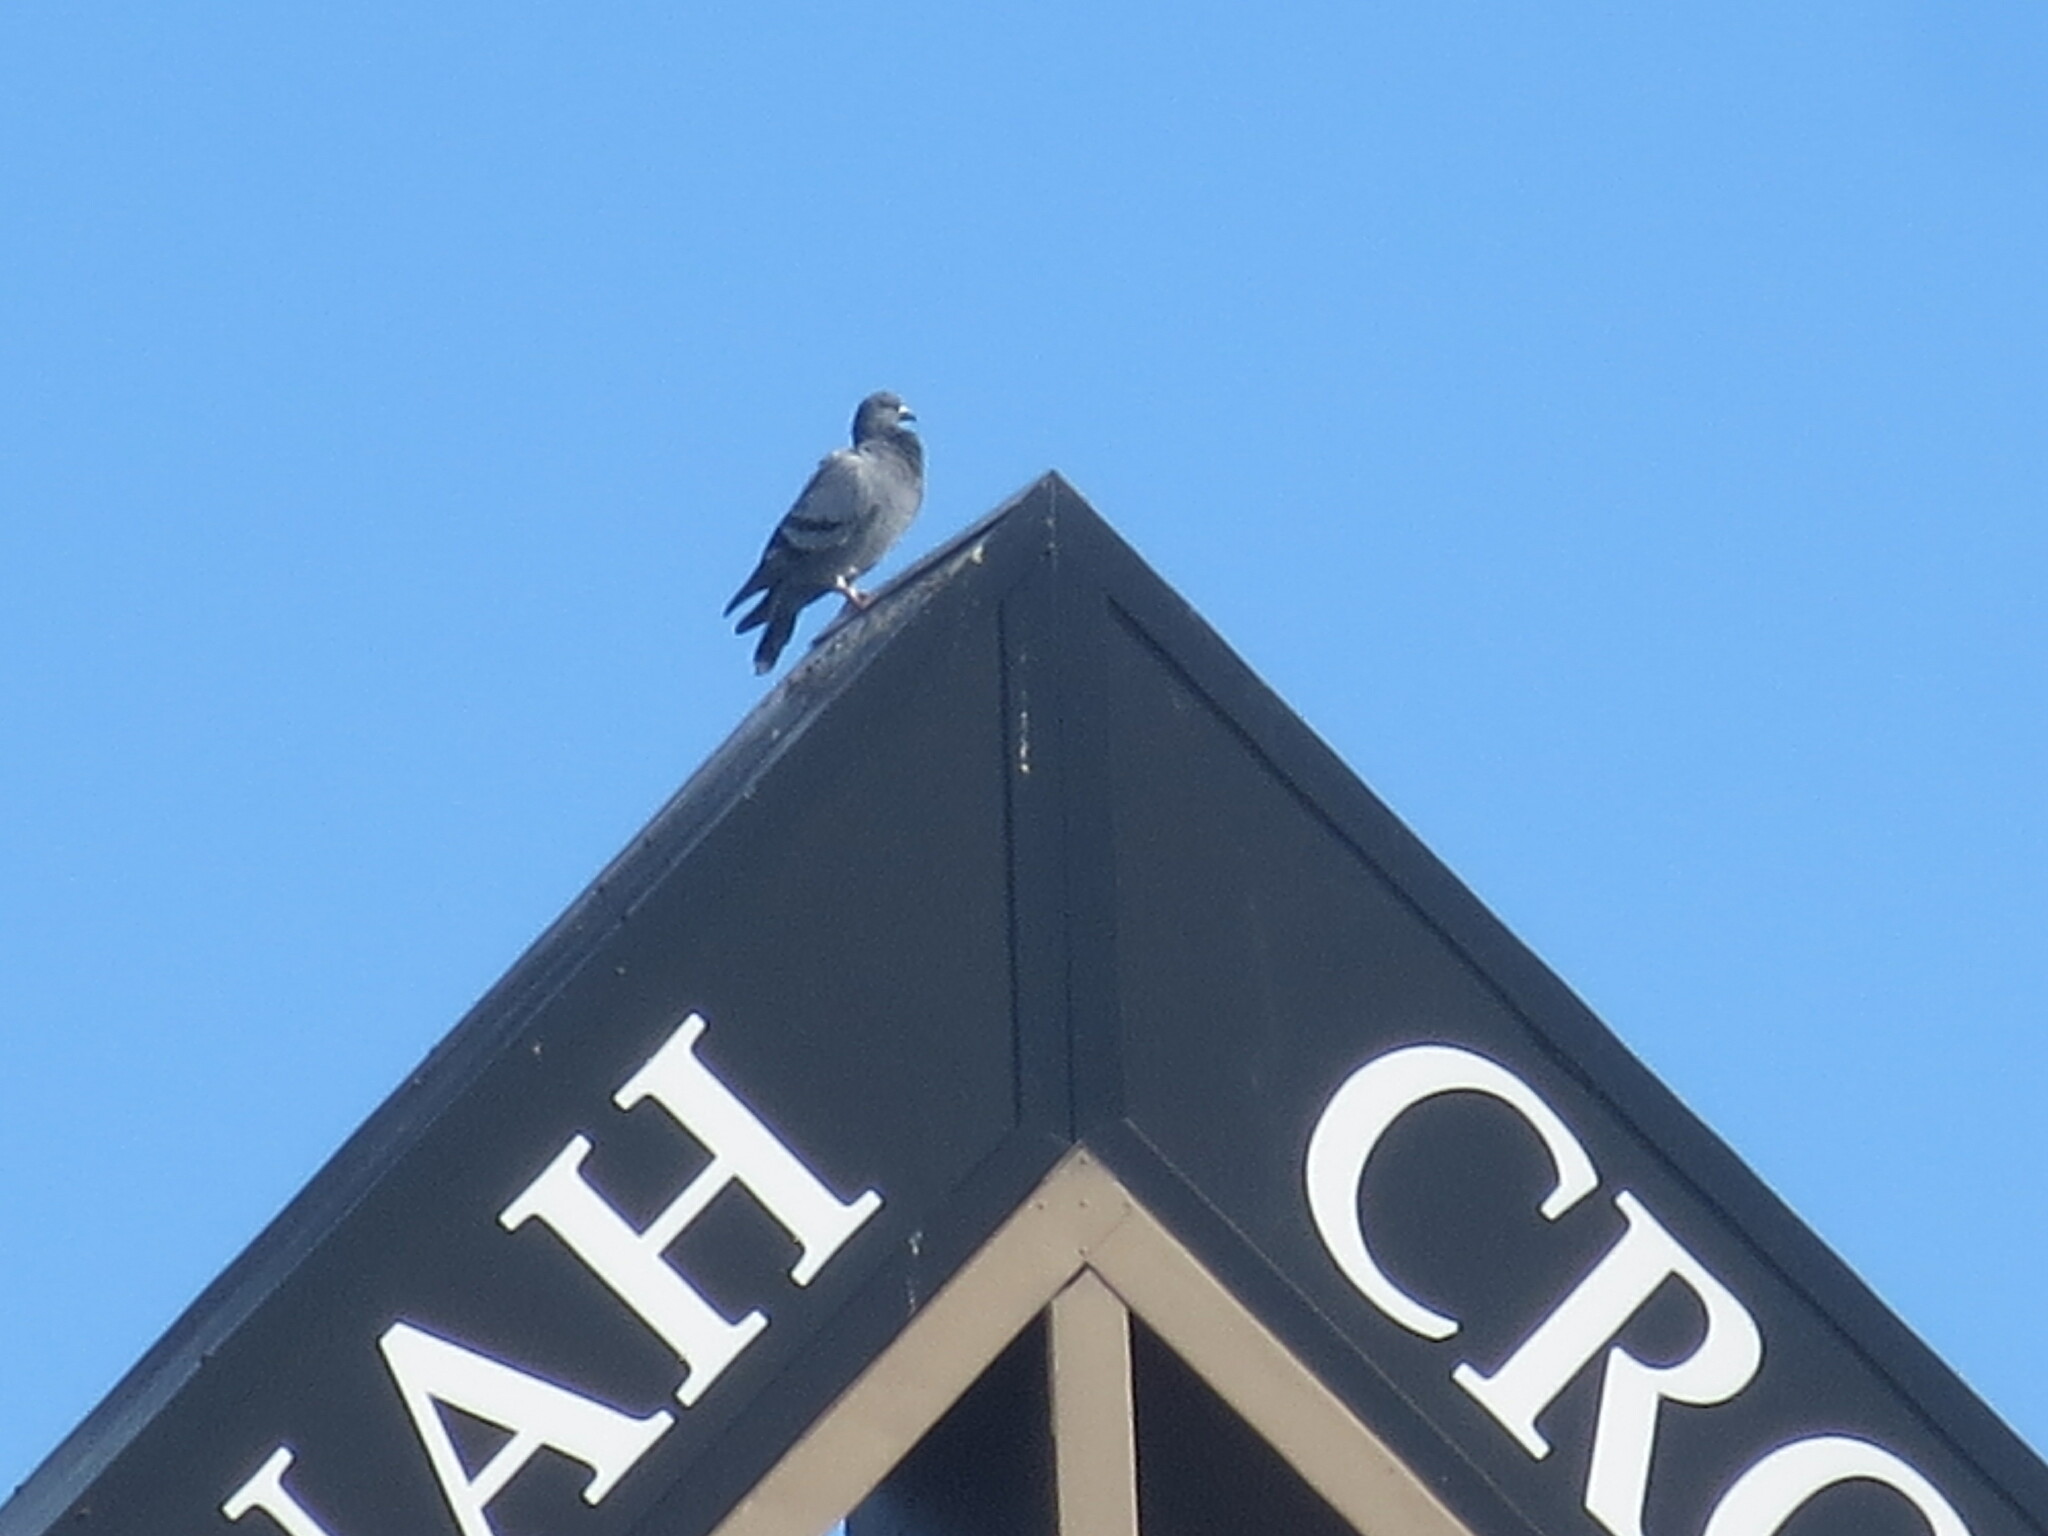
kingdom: Animalia
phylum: Chordata
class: Aves
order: Columbiformes
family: Columbidae
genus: Columba
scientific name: Columba livia
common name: Rock pigeon
